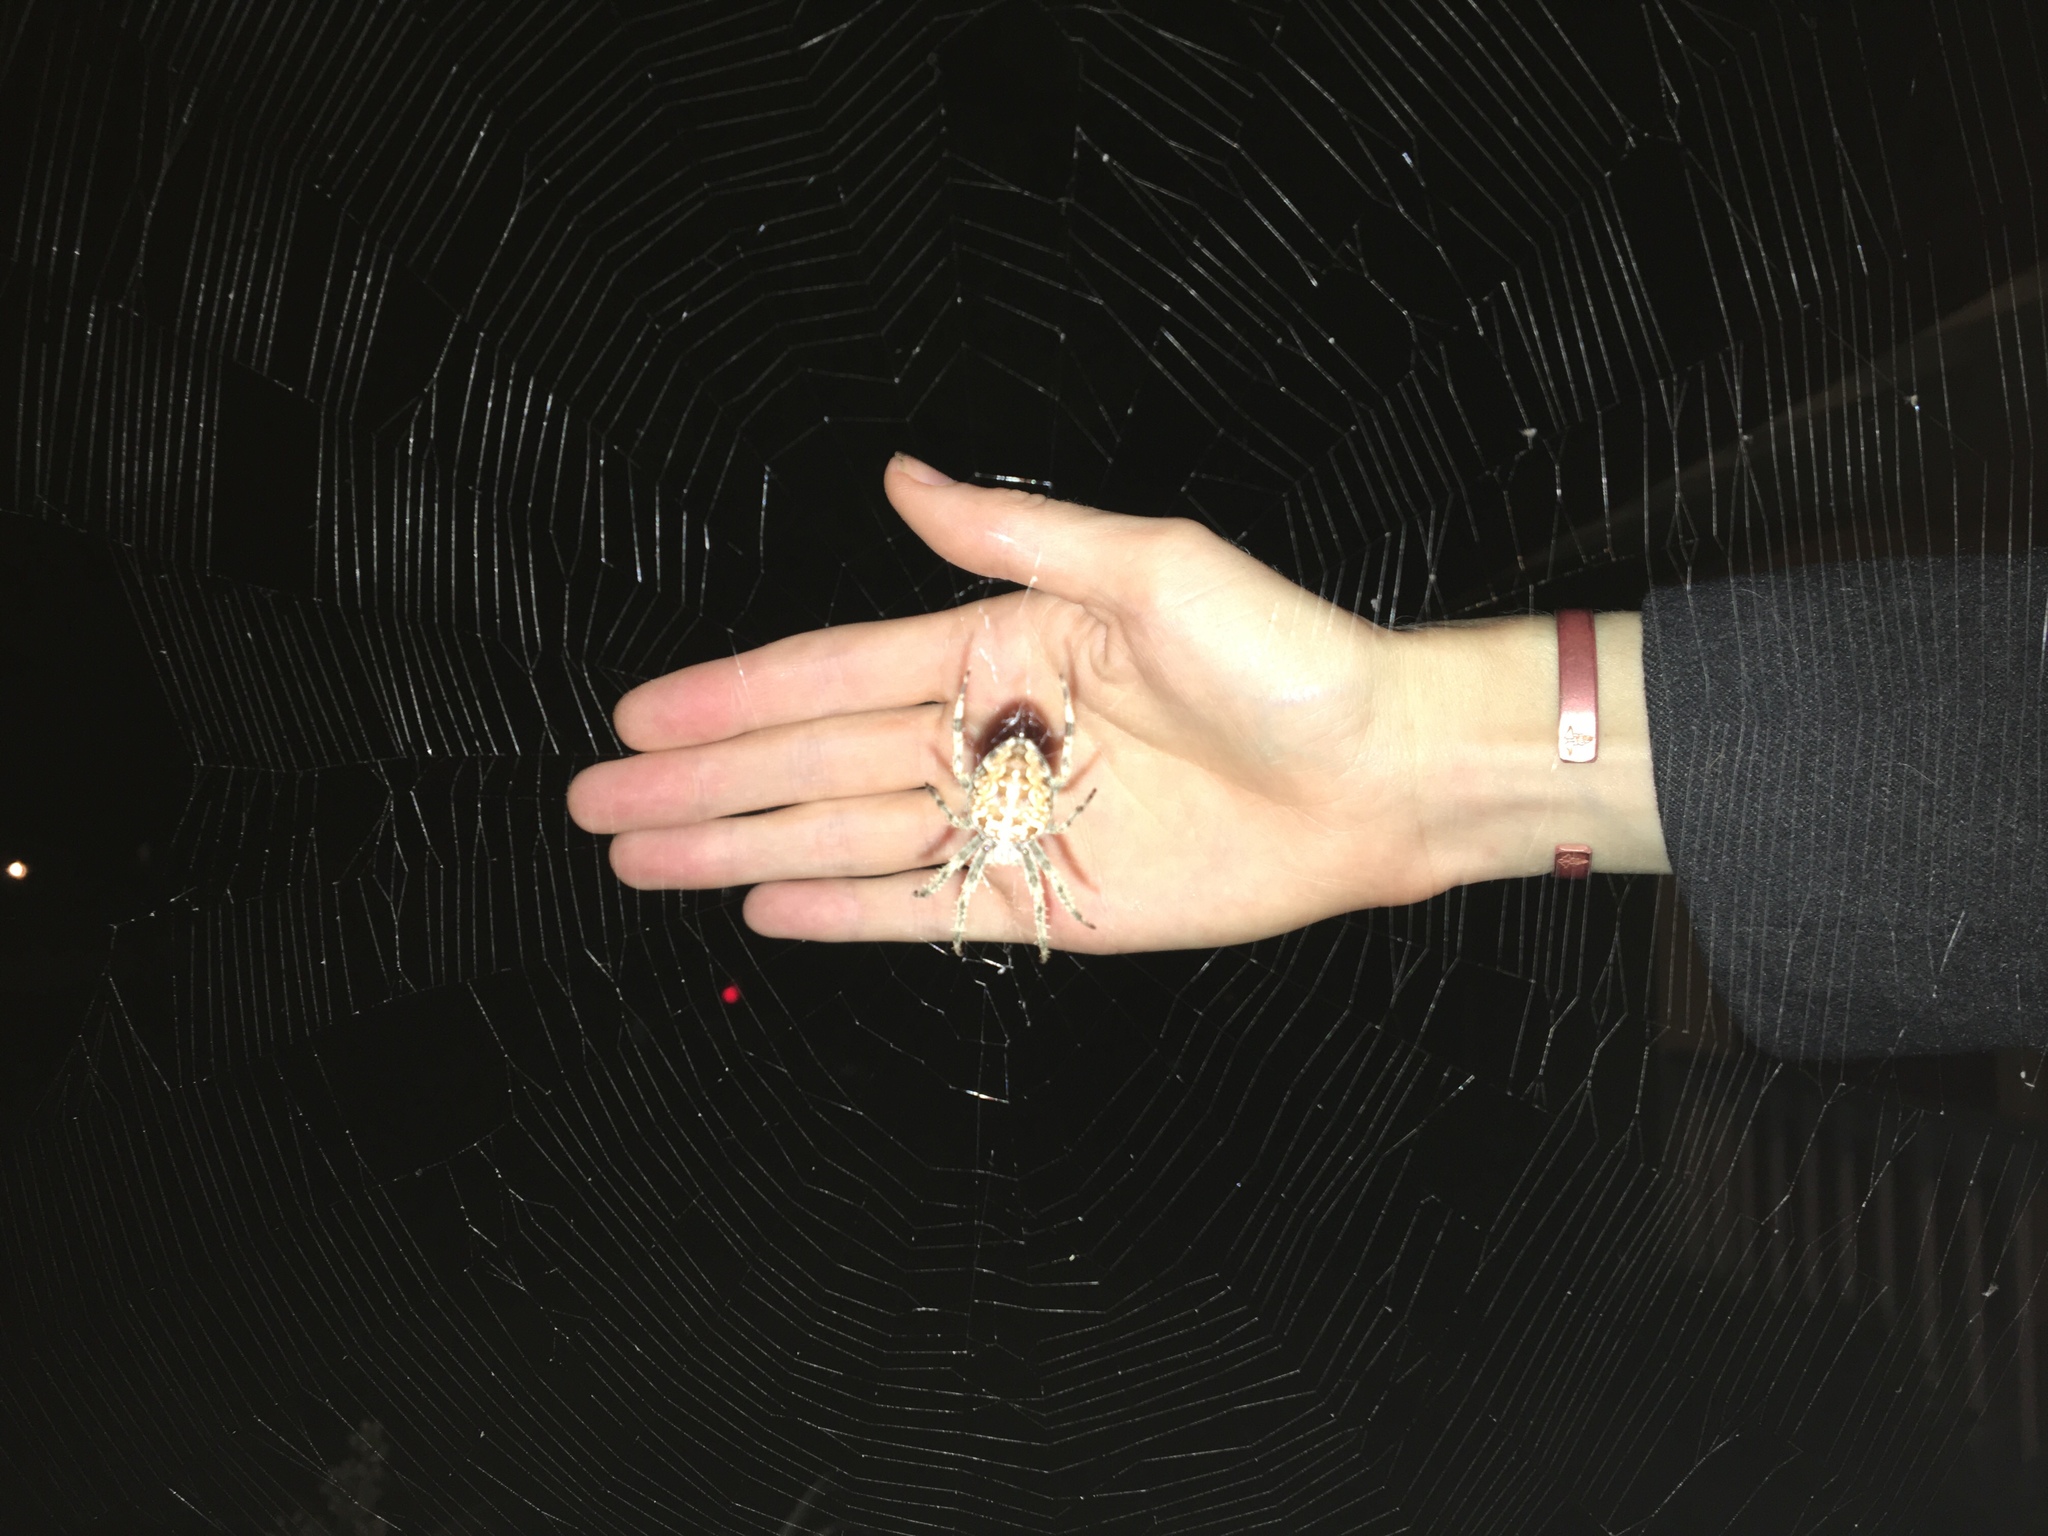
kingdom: Animalia
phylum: Arthropoda
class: Arachnida
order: Araneae
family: Araneidae
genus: Araneus
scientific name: Araneus diadematus
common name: Cross orbweaver
